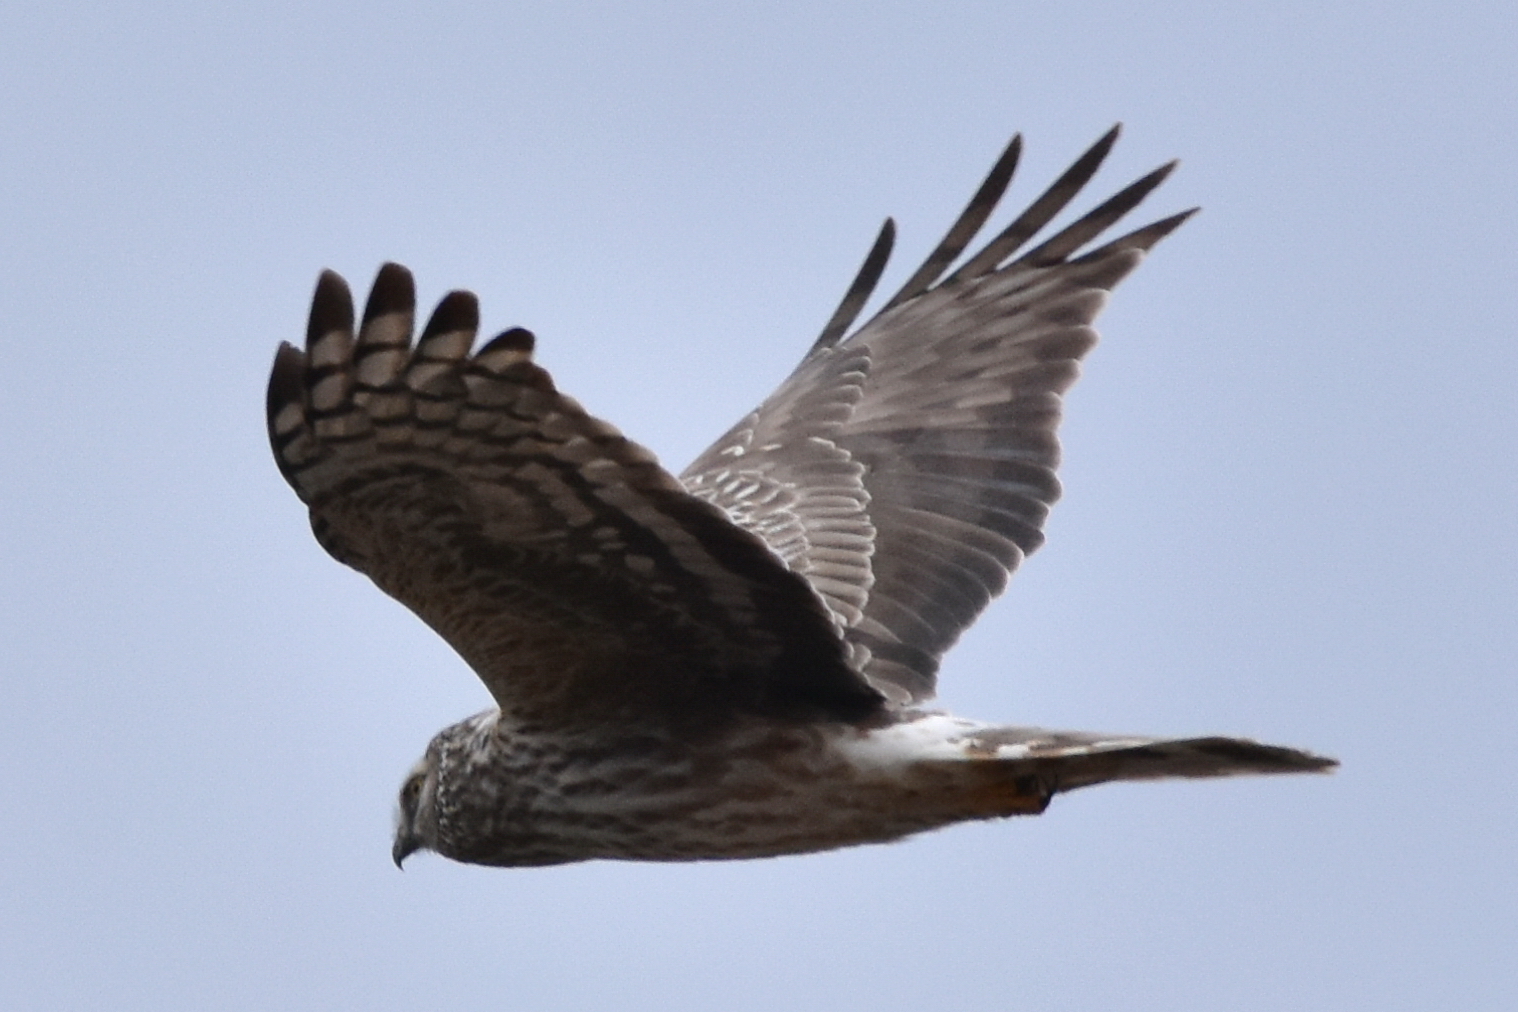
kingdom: Animalia
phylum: Chordata
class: Aves
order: Accipitriformes
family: Accipitridae
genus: Circus
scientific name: Circus cyaneus
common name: Hen harrier
